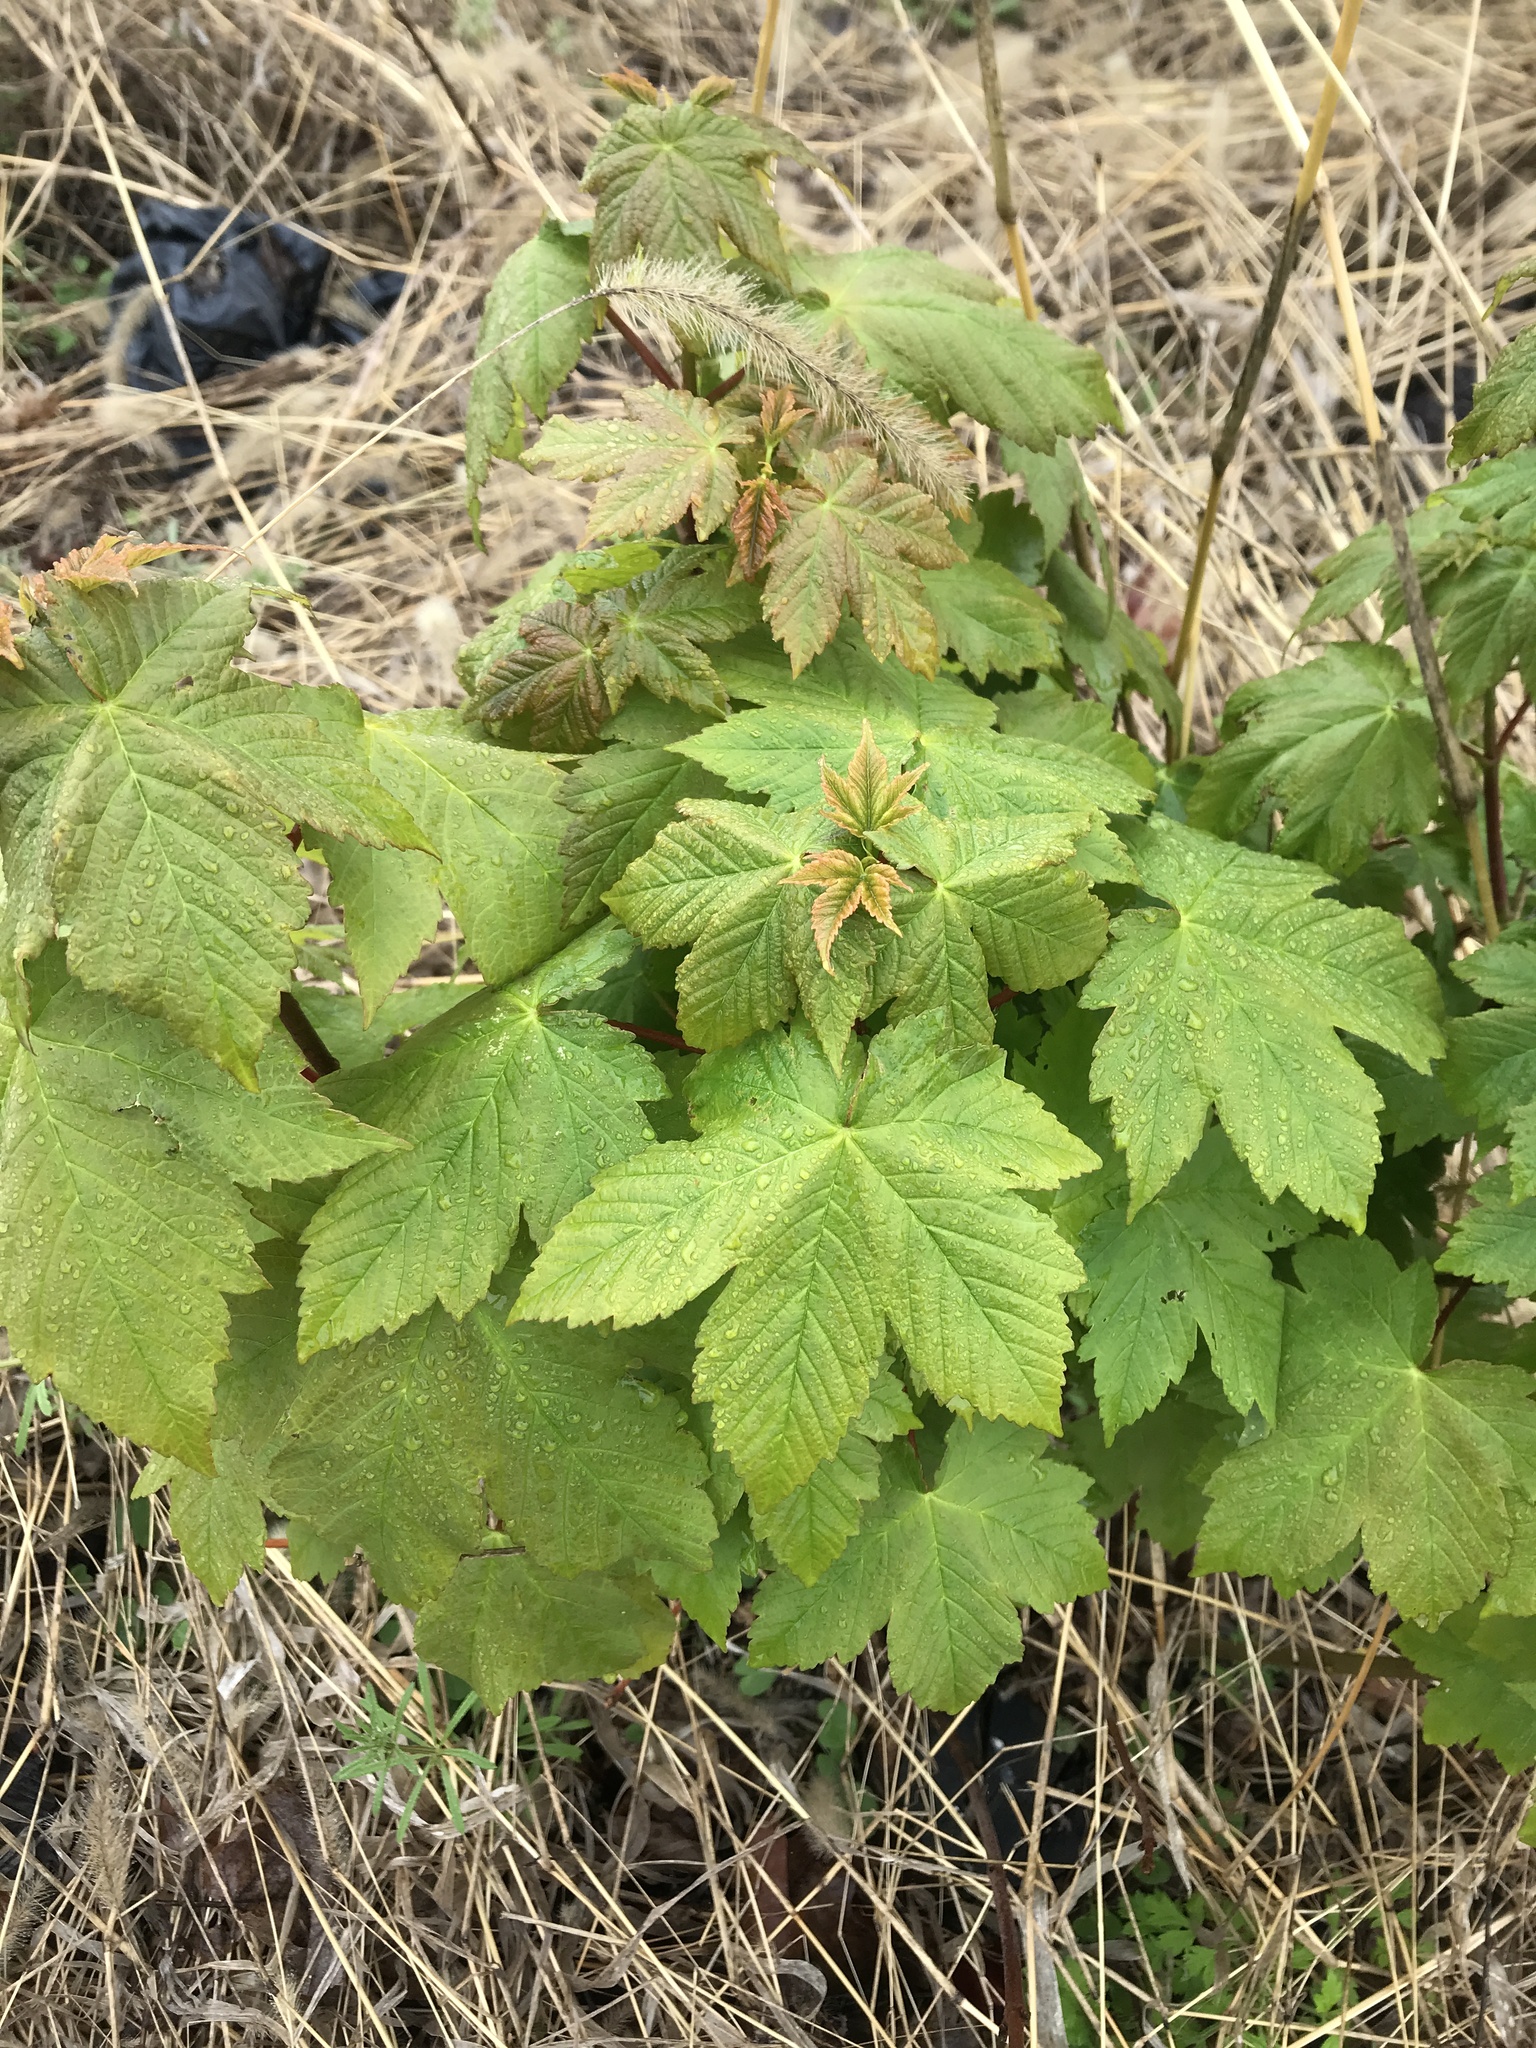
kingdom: Plantae
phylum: Tracheophyta
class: Magnoliopsida
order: Sapindales
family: Sapindaceae
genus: Acer
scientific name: Acer pseudoplatanus
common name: Sycamore
